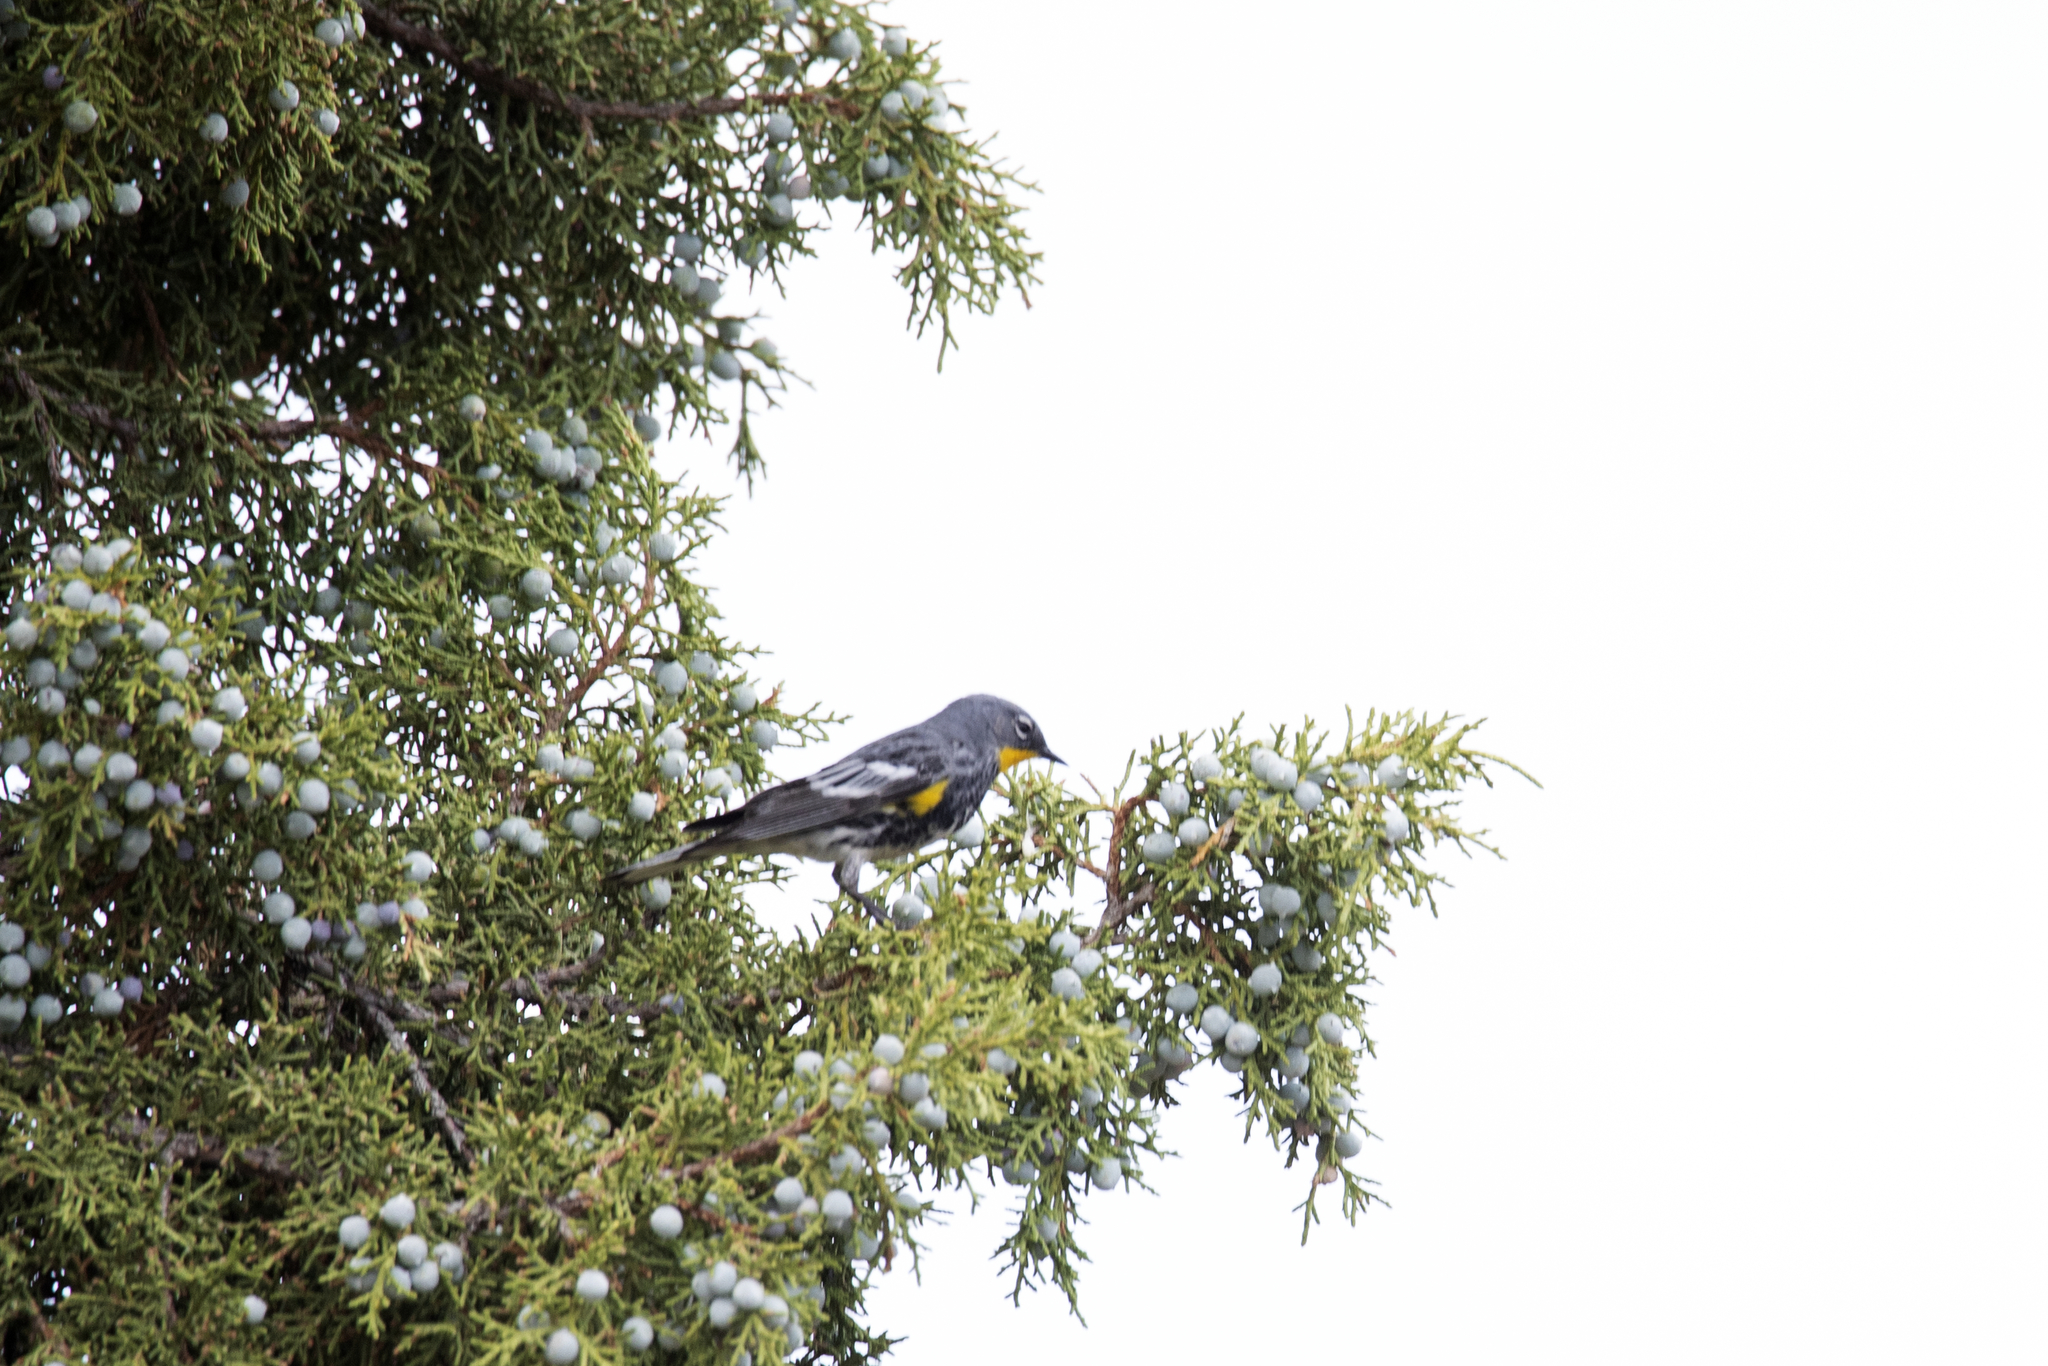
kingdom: Animalia
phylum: Chordata
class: Aves
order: Passeriformes
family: Parulidae
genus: Setophaga
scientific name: Setophaga coronata
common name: Myrtle warbler
